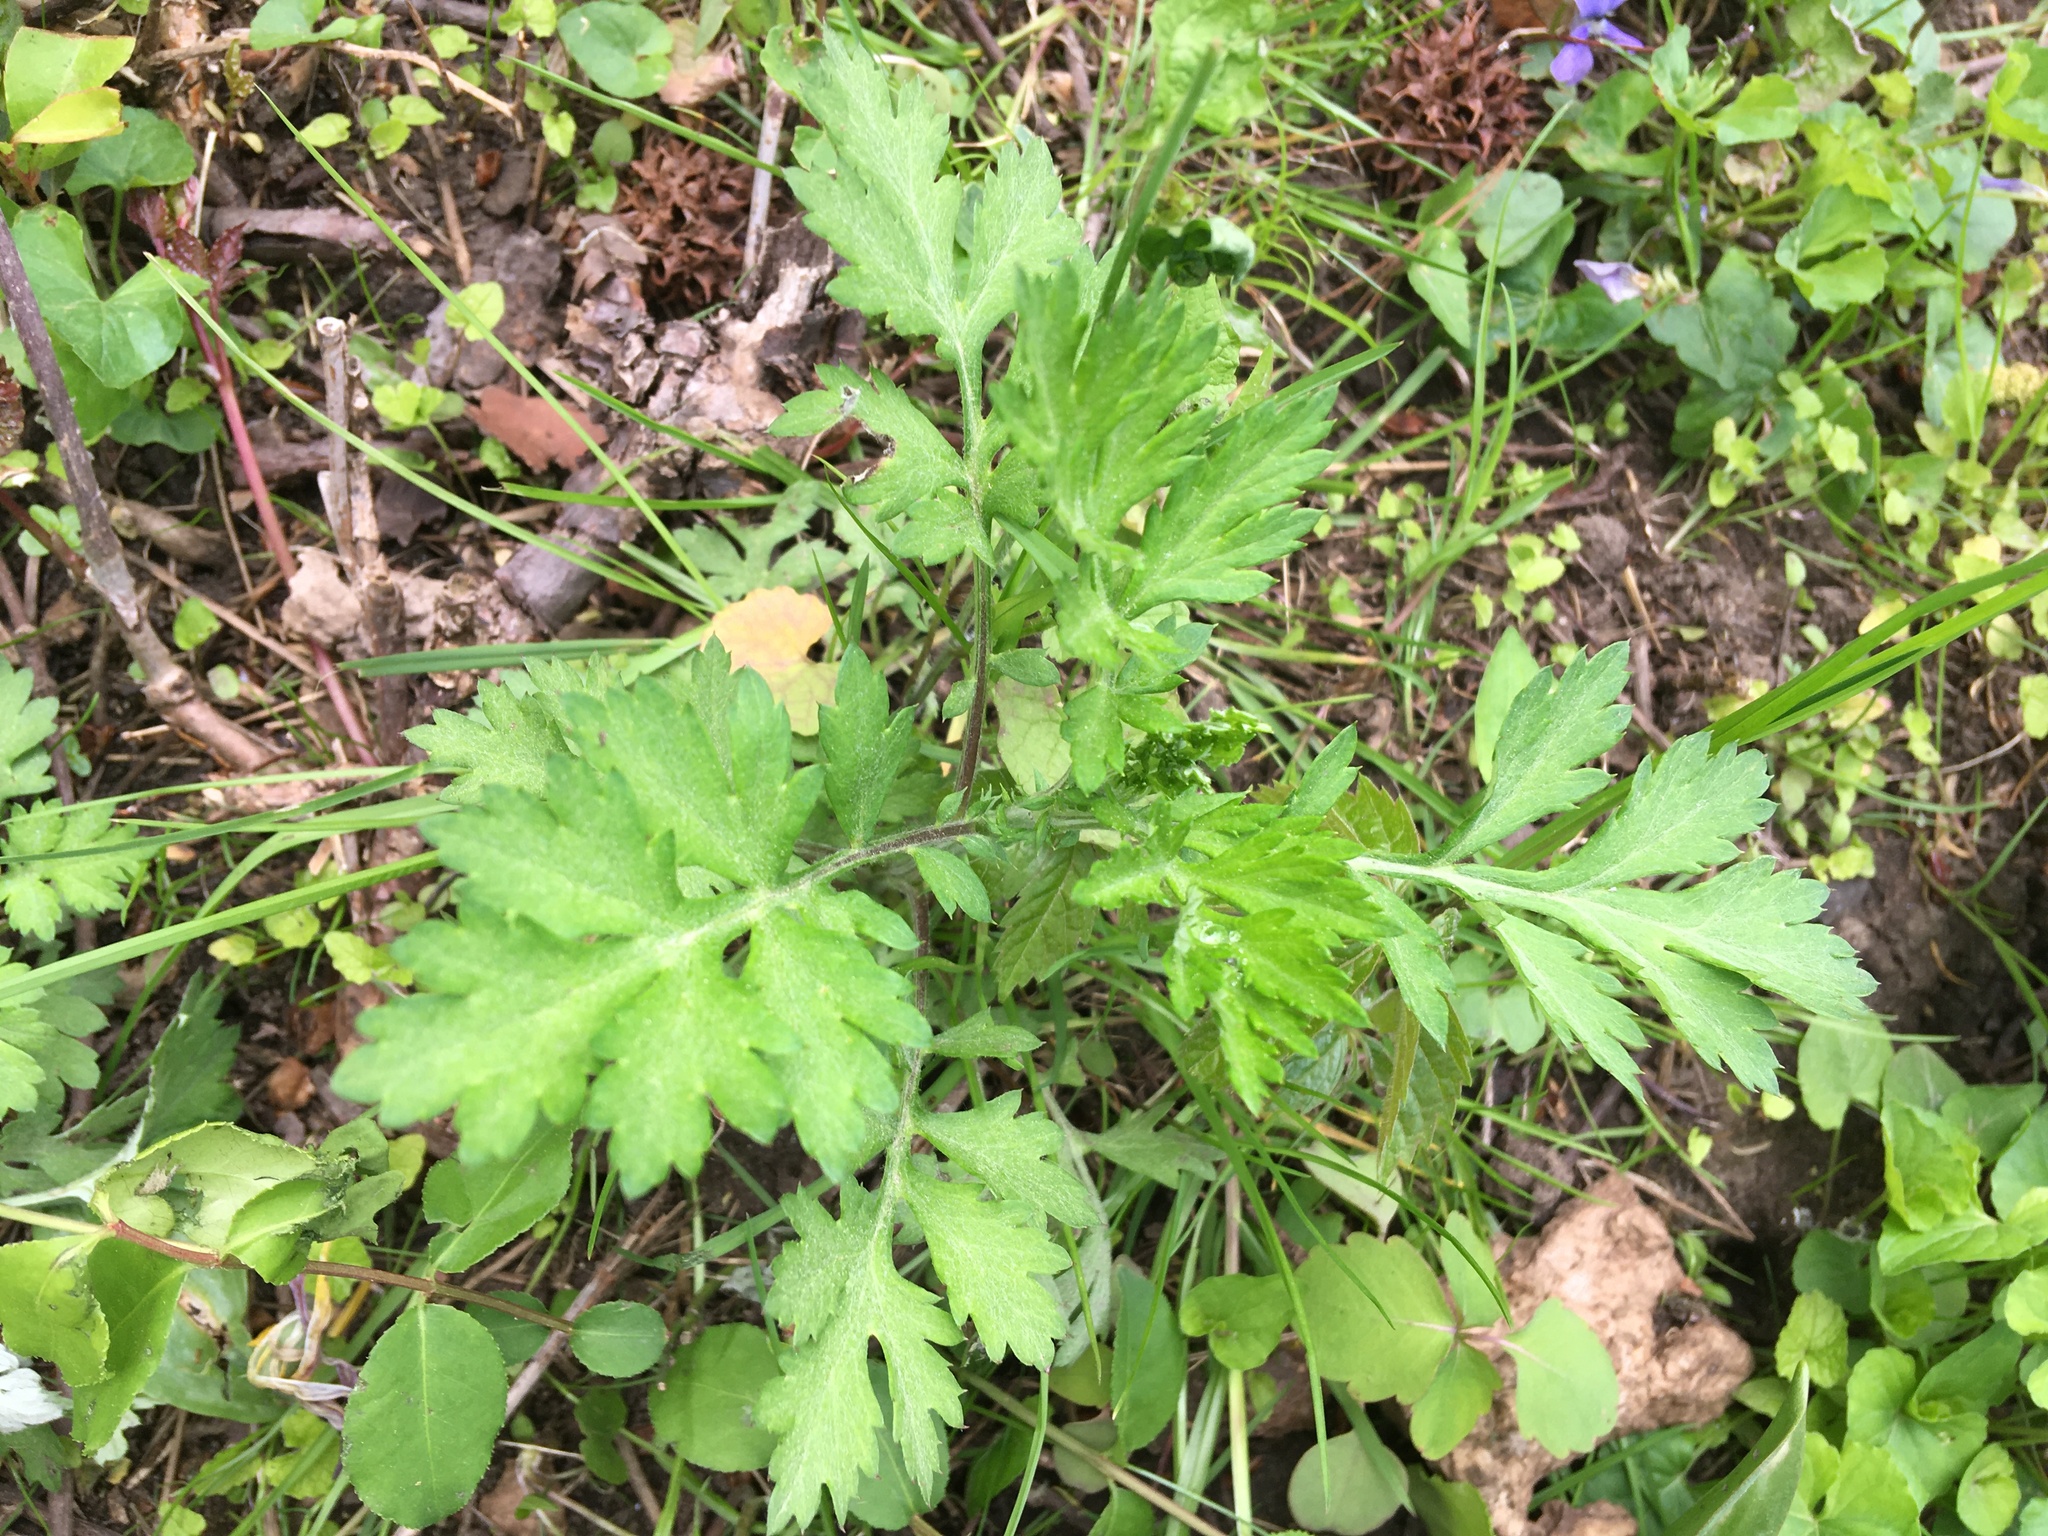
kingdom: Plantae
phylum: Tracheophyta
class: Magnoliopsida
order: Asterales
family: Asteraceae
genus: Artemisia
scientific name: Artemisia vulgaris
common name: Mugwort
